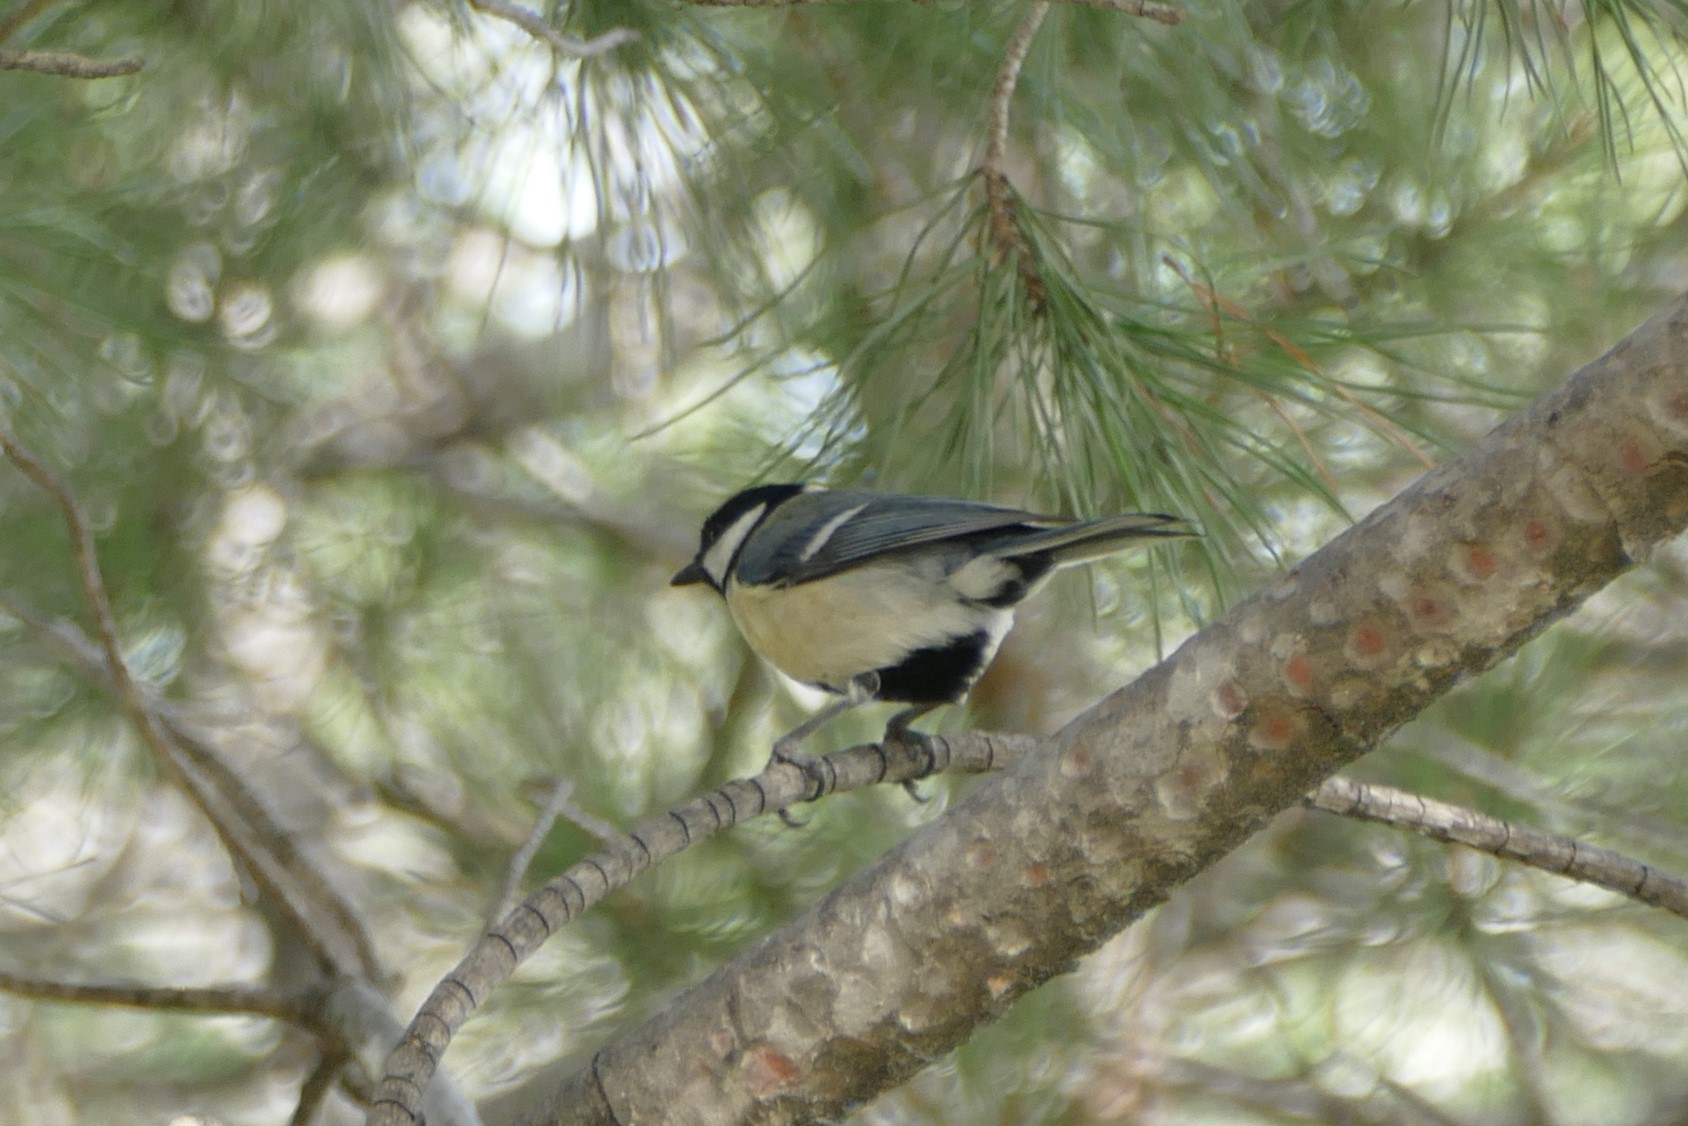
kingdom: Animalia
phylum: Chordata
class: Aves
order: Passeriformes
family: Paridae
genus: Parus
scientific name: Parus major
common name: Great tit
